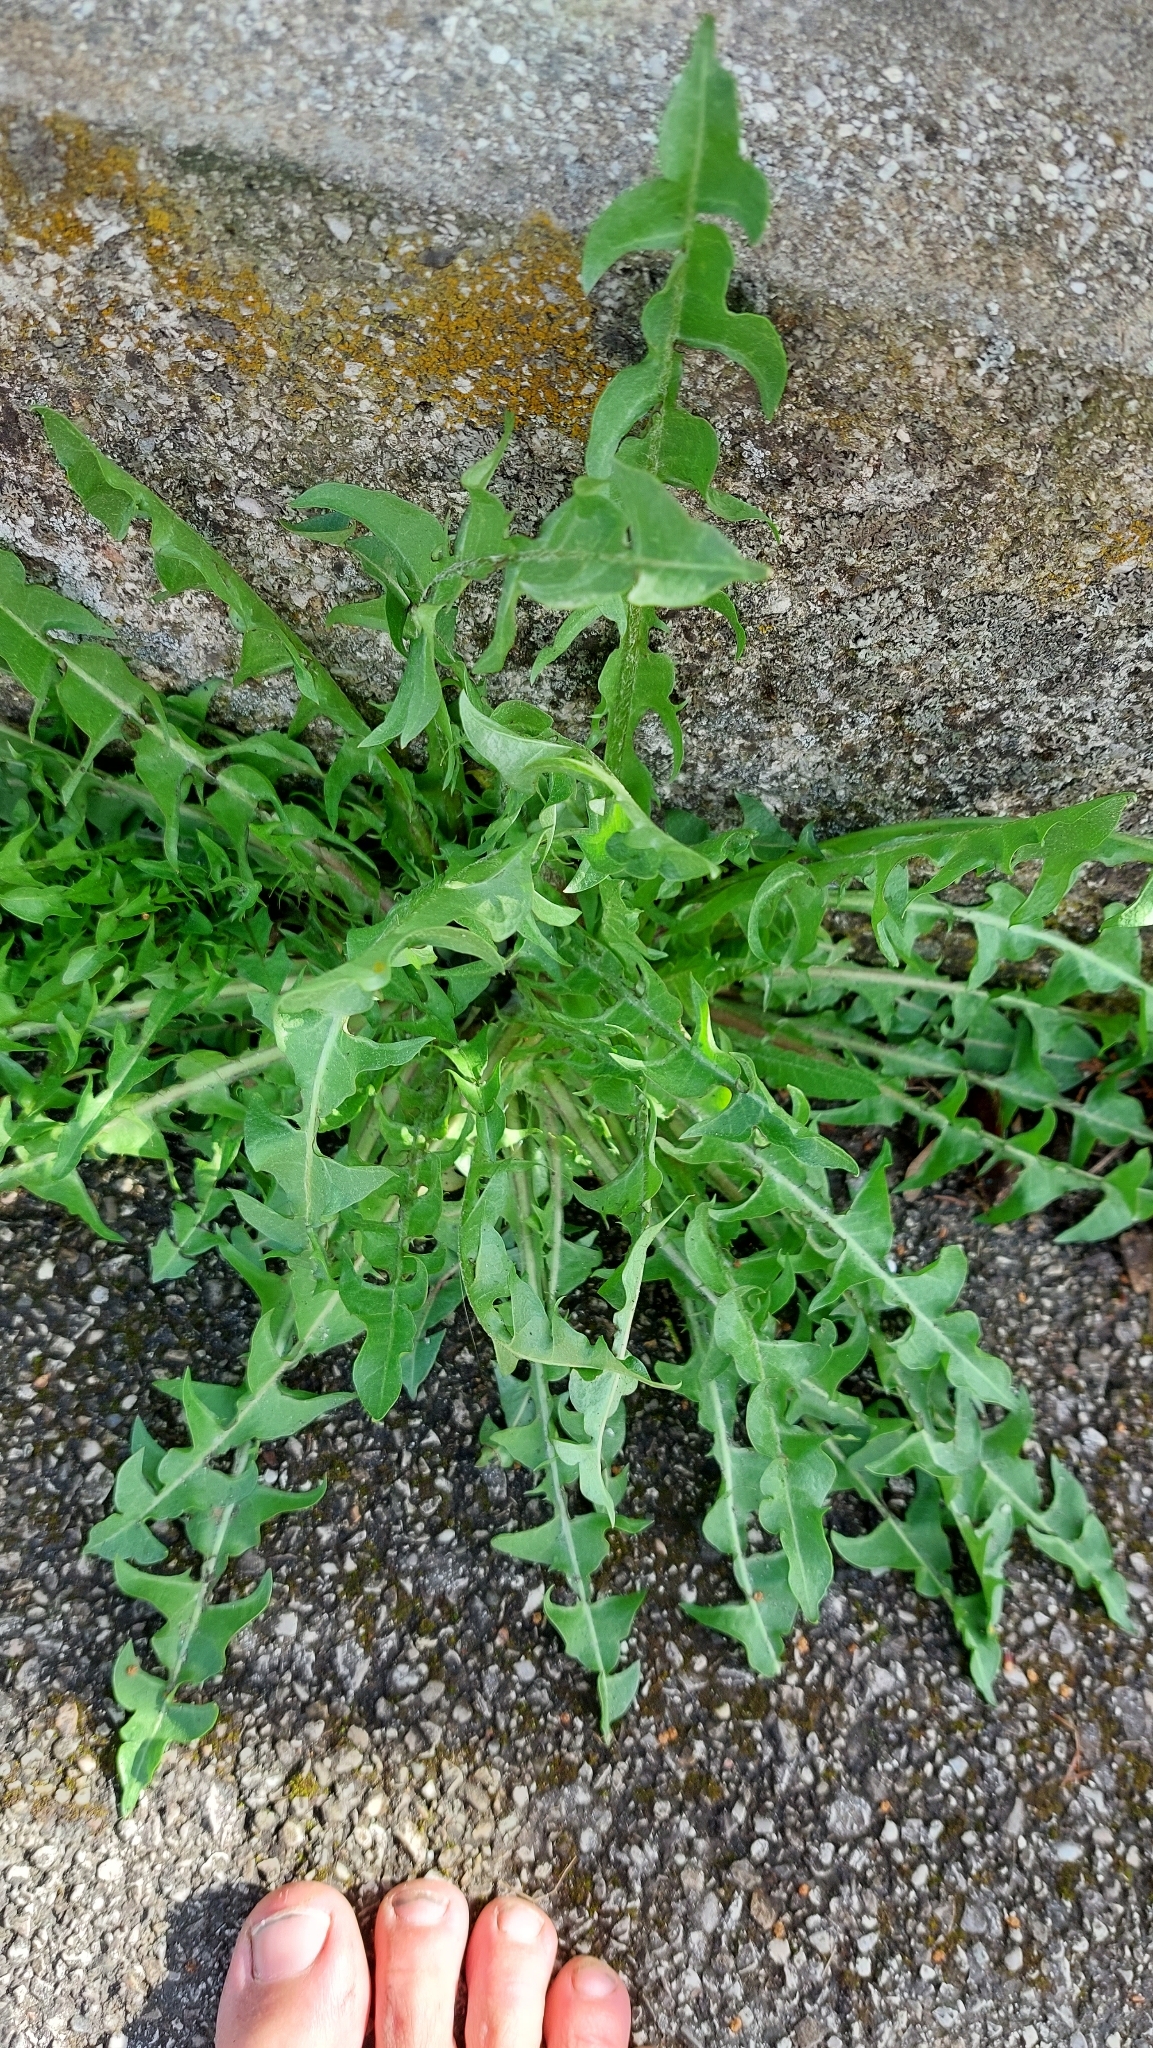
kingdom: Plantae
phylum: Tracheophyta
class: Magnoliopsida
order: Asterales
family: Asteraceae
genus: Taraxacum
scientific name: Taraxacum
